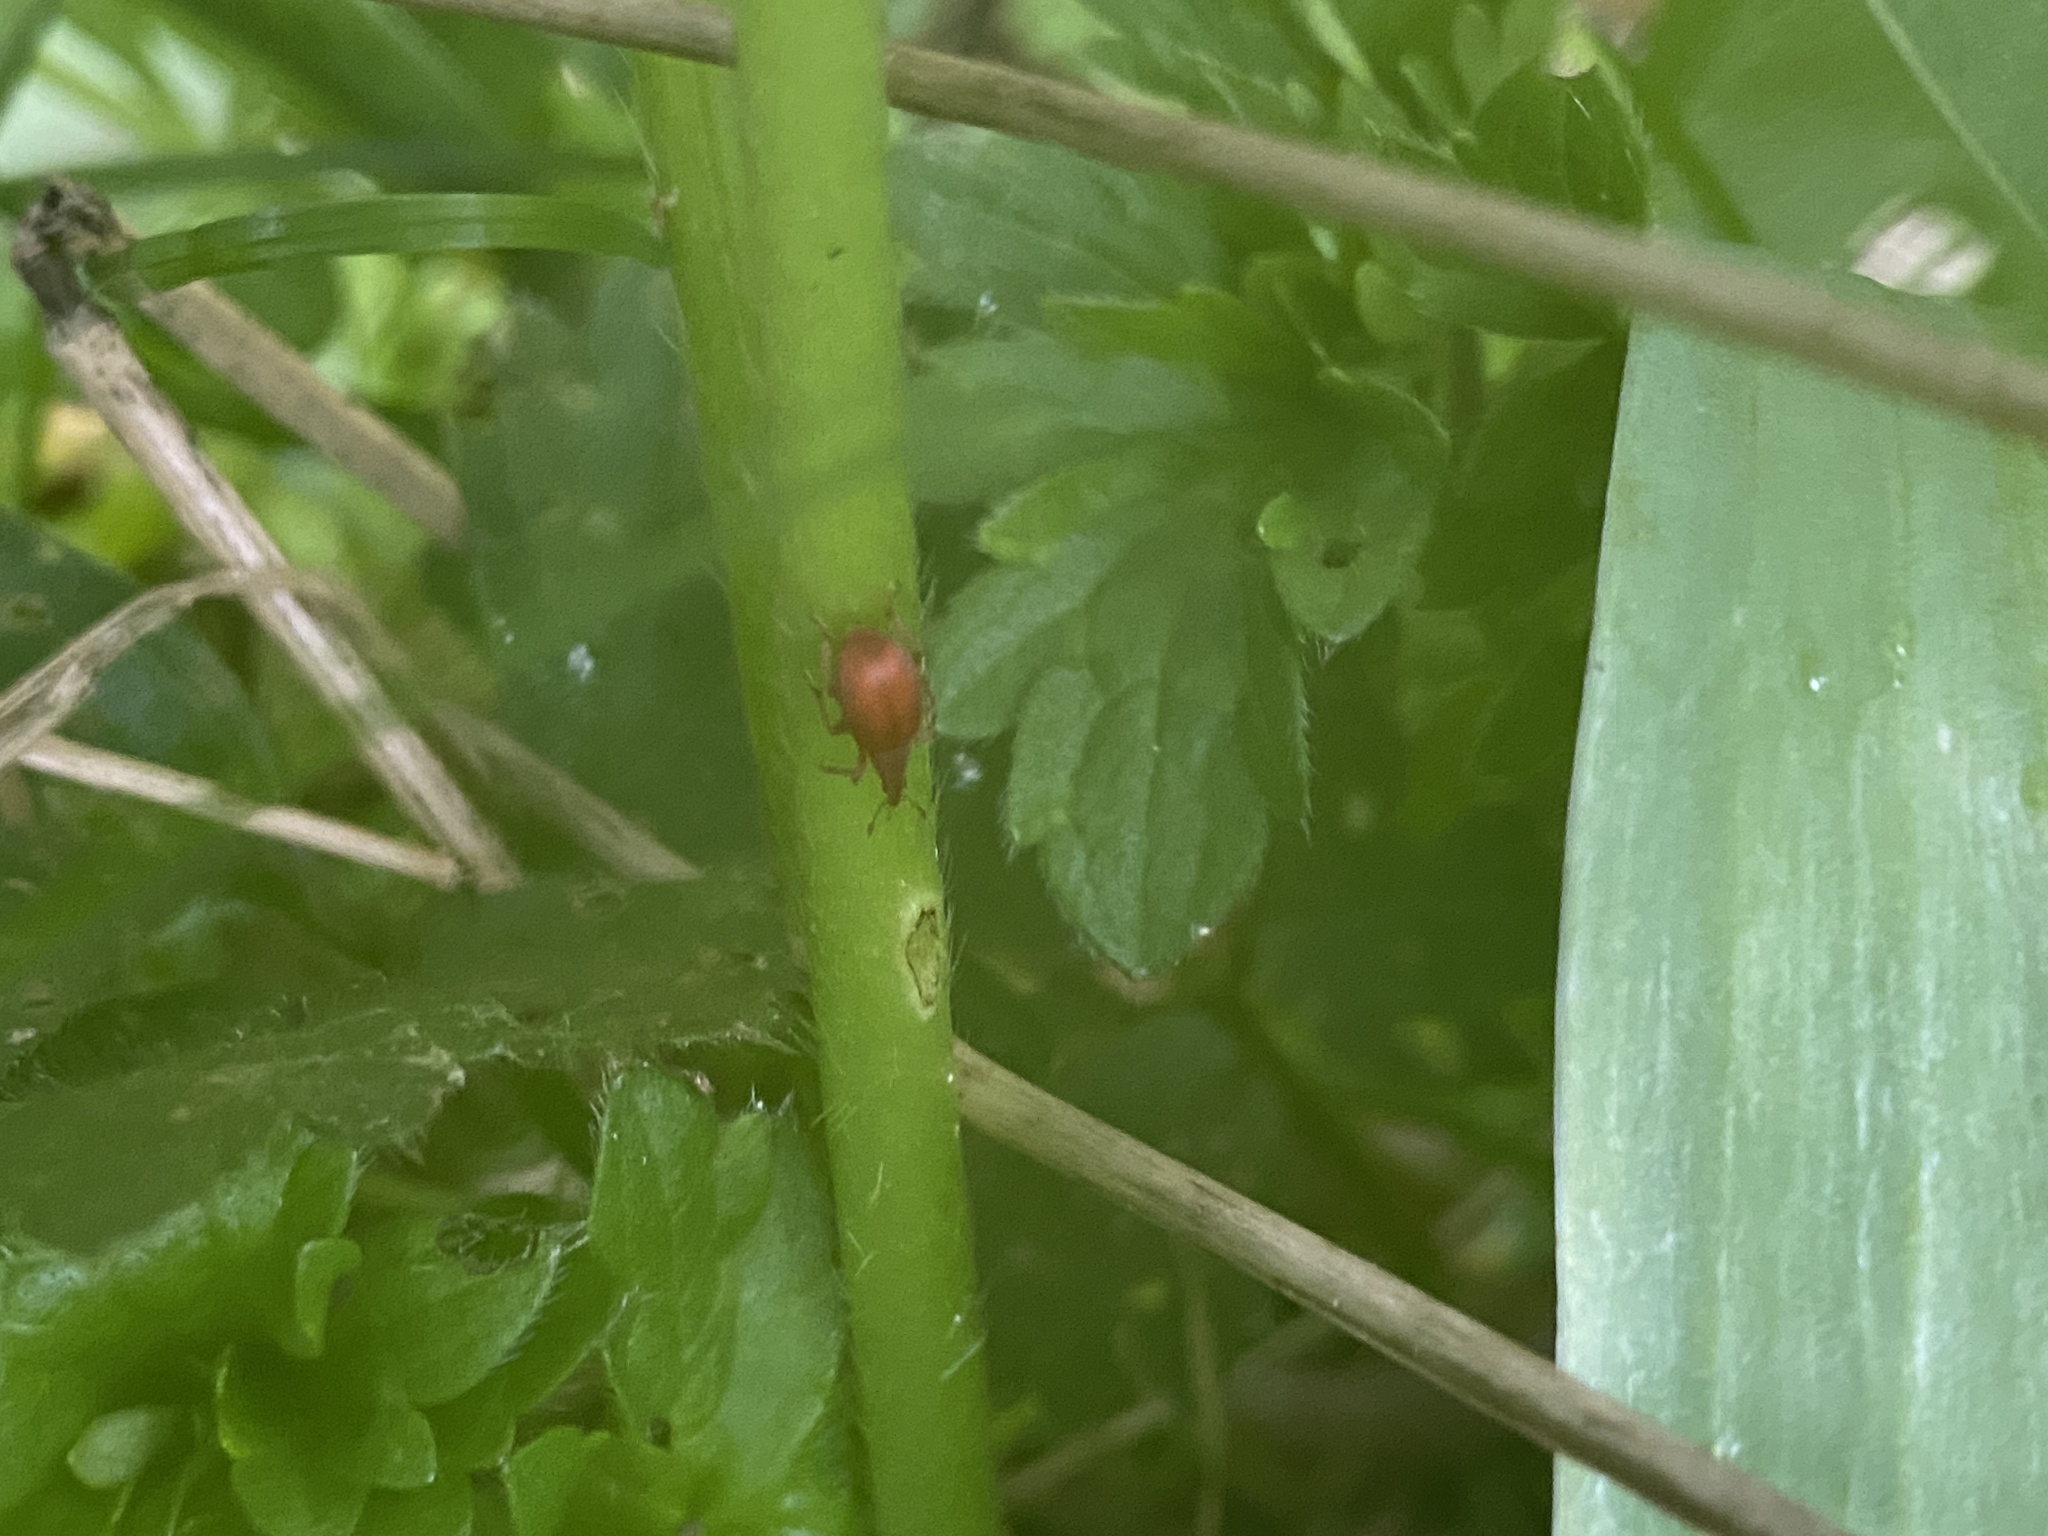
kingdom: Animalia
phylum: Arthropoda
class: Insecta
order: Coleoptera
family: Apionidae
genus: Apion
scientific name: Apion frumentarium
